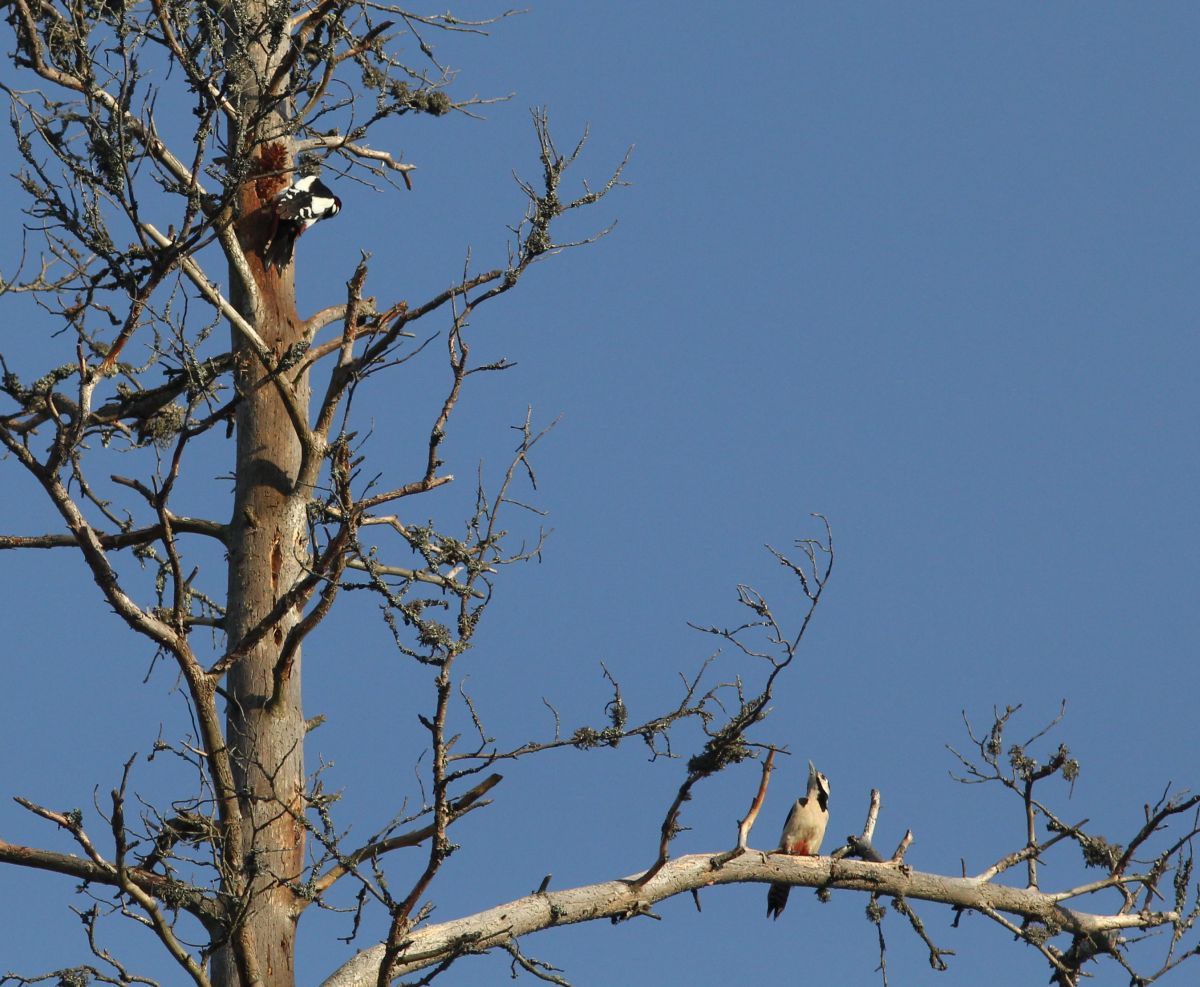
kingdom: Animalia
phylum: Chordata
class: Aves
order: Piciformes
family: Picidae
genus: Dendrocopos
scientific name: Dendrocopos major
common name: Great spotted woodpecker
